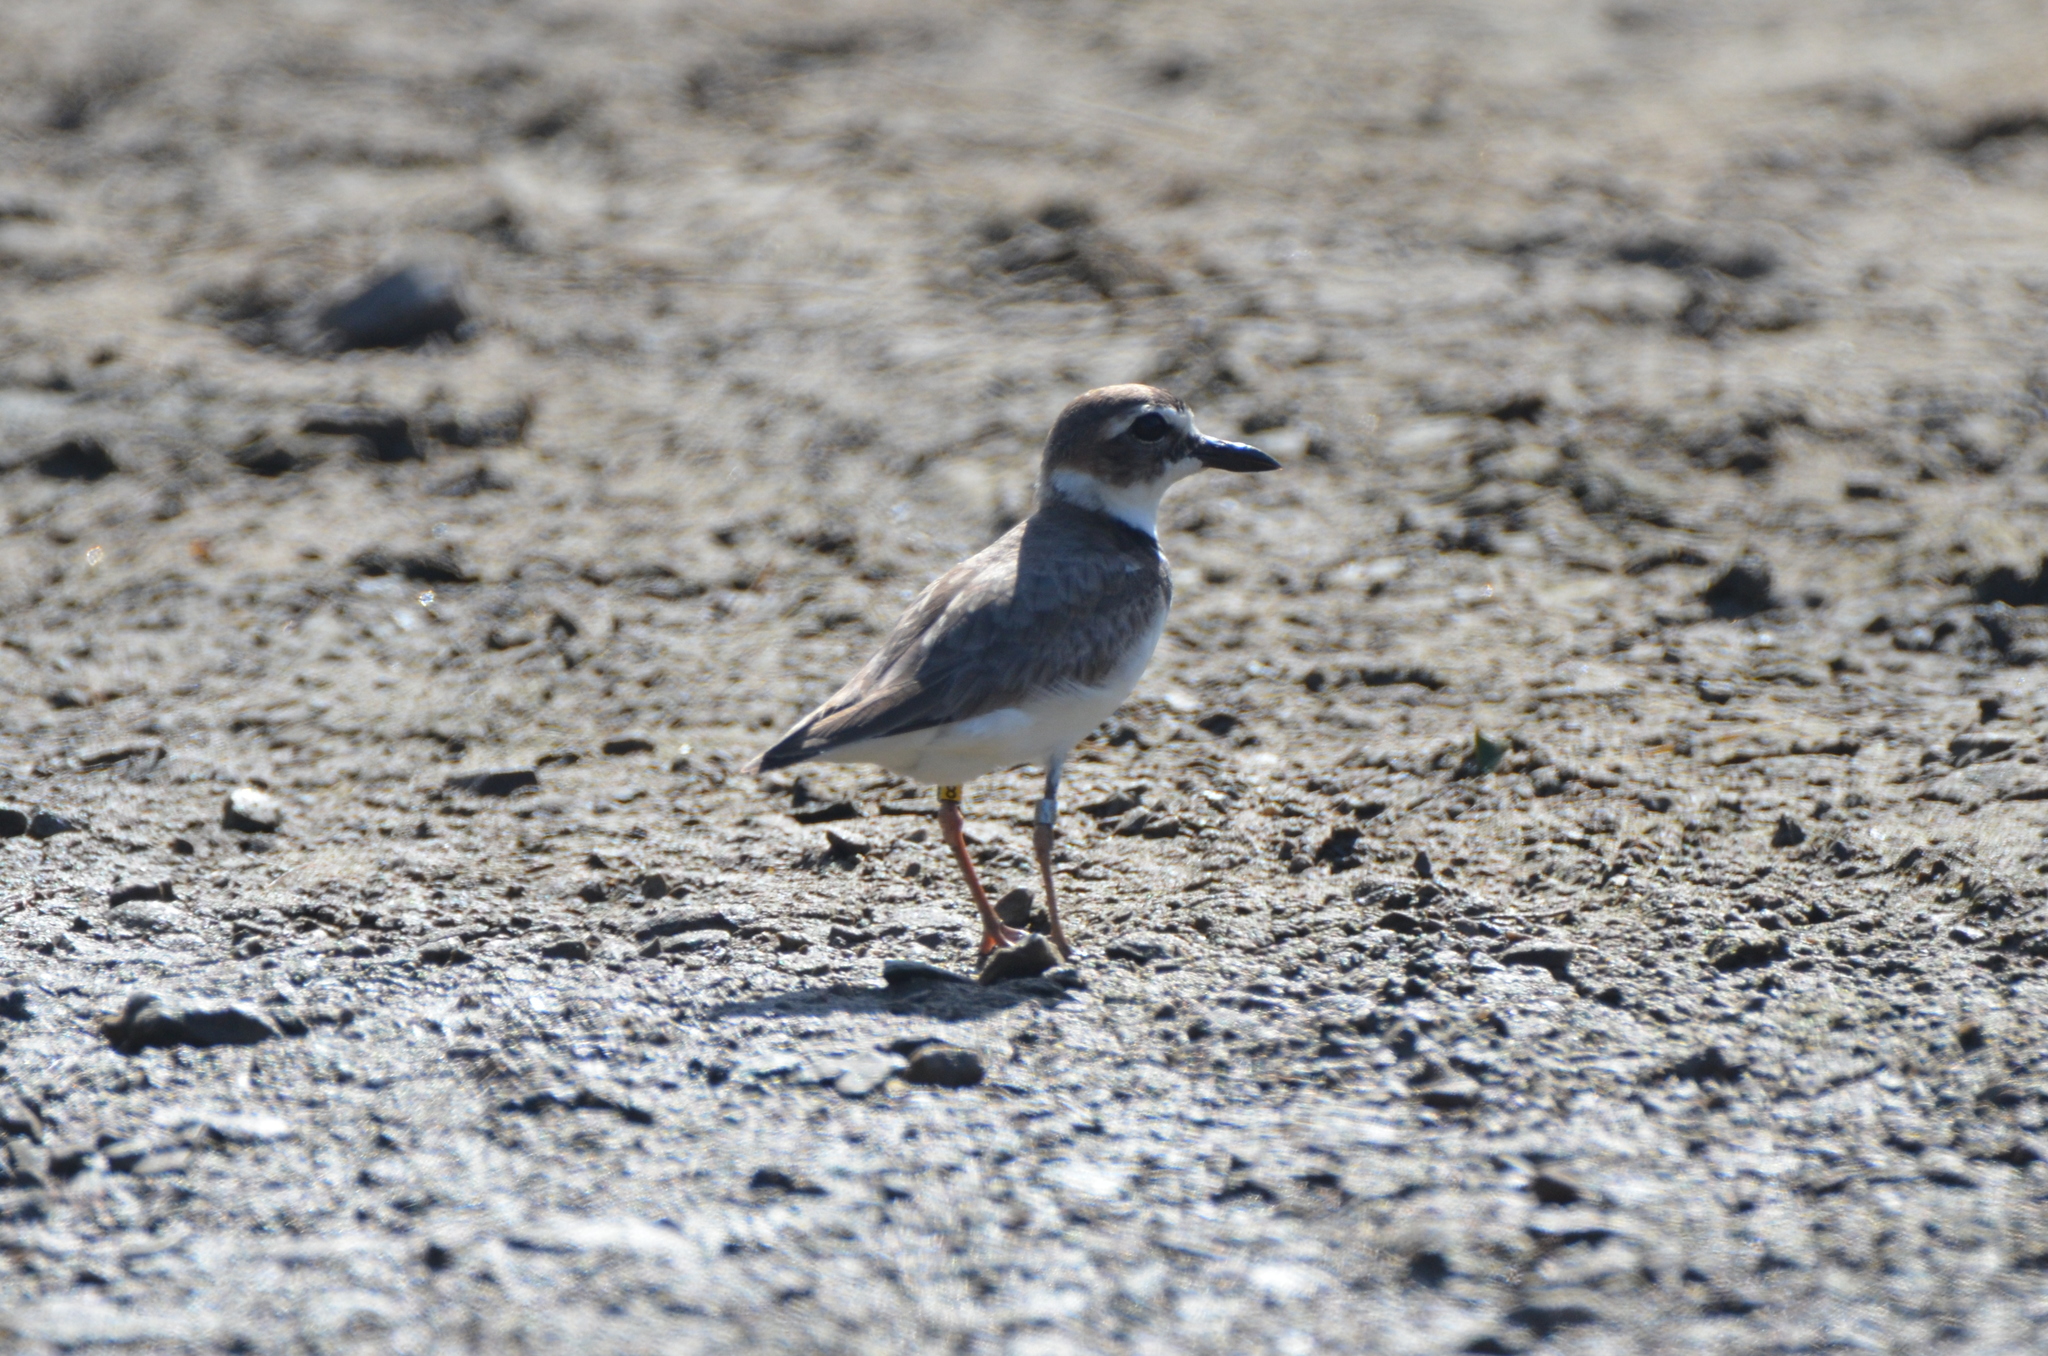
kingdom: Animalia
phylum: Chordata
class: Aves
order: Charadriiformes
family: Charadriidae
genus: Anarhynchus
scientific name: Anarhynchus
